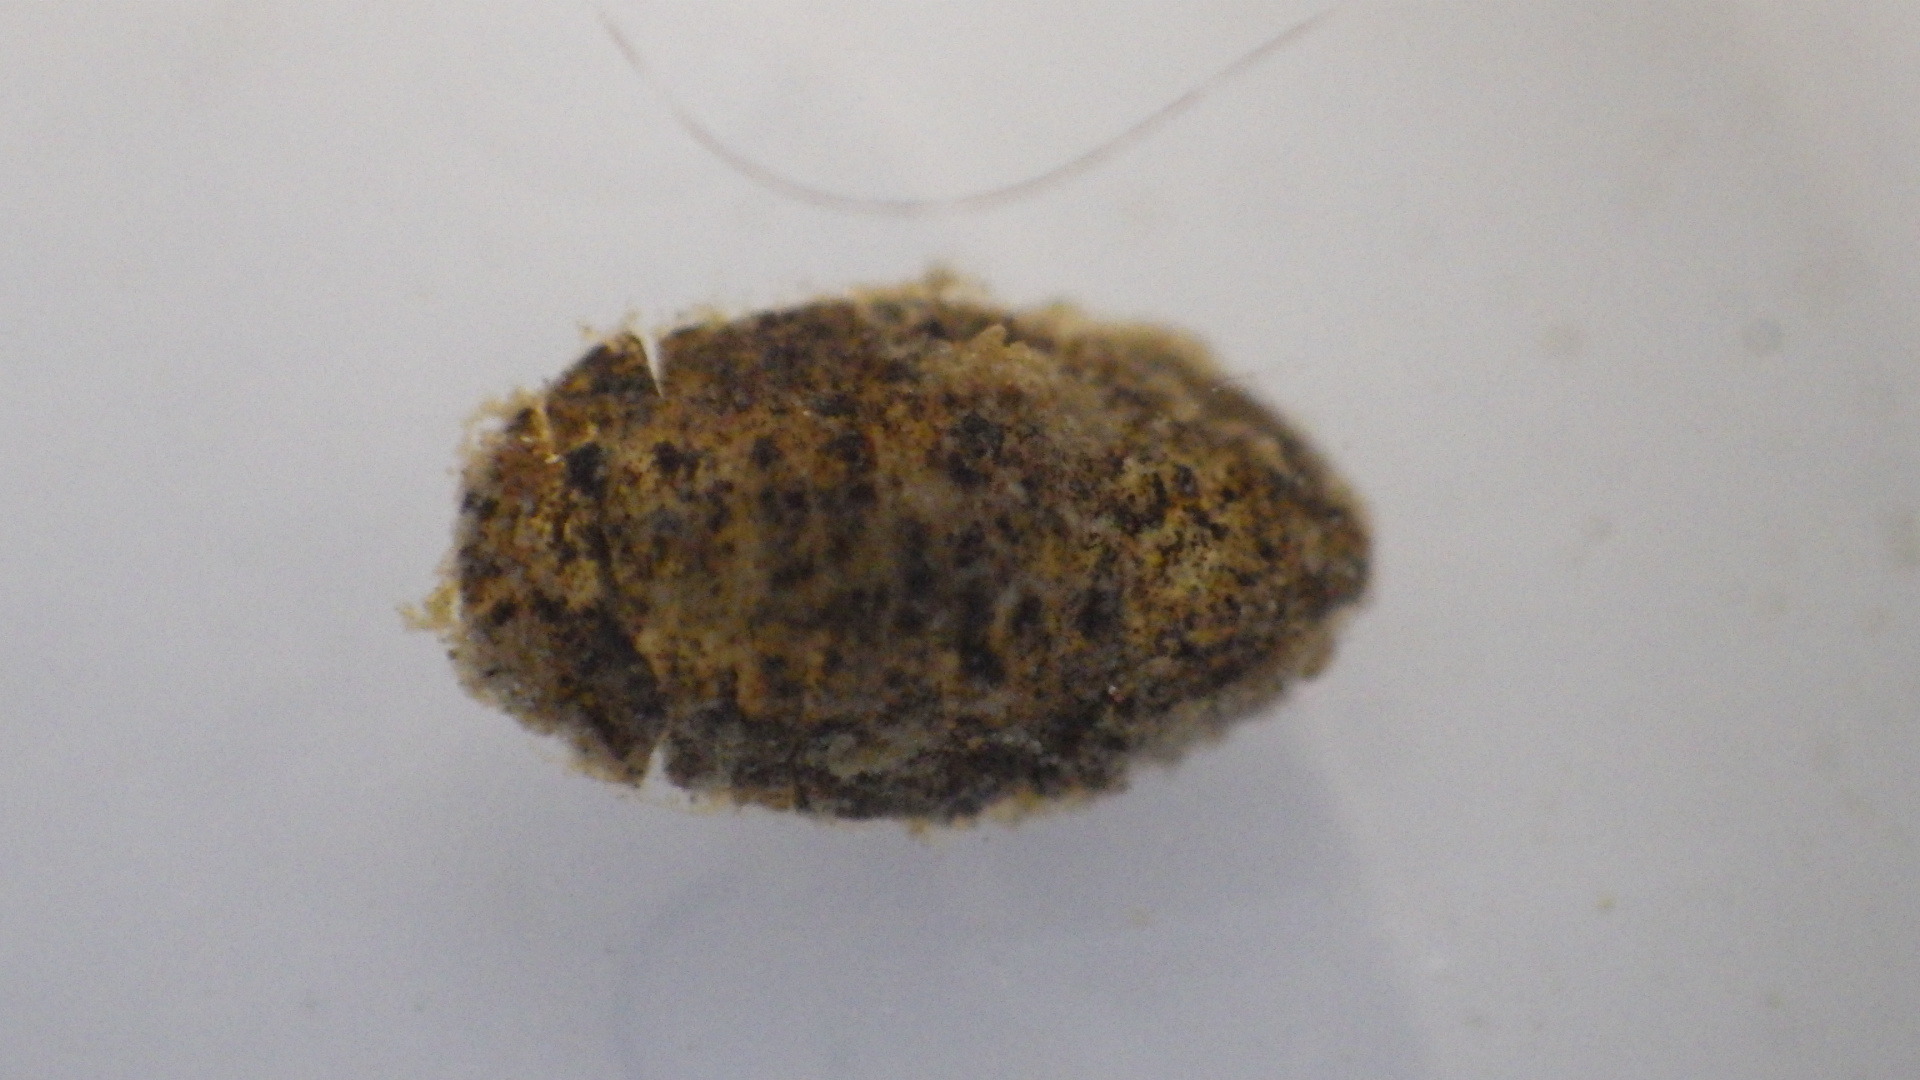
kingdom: Animalia
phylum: Arthropoda
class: Malacostraca
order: Isopoda
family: Sphaeromatidae
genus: Cassidinidea
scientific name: Cassidinidea ovalis
